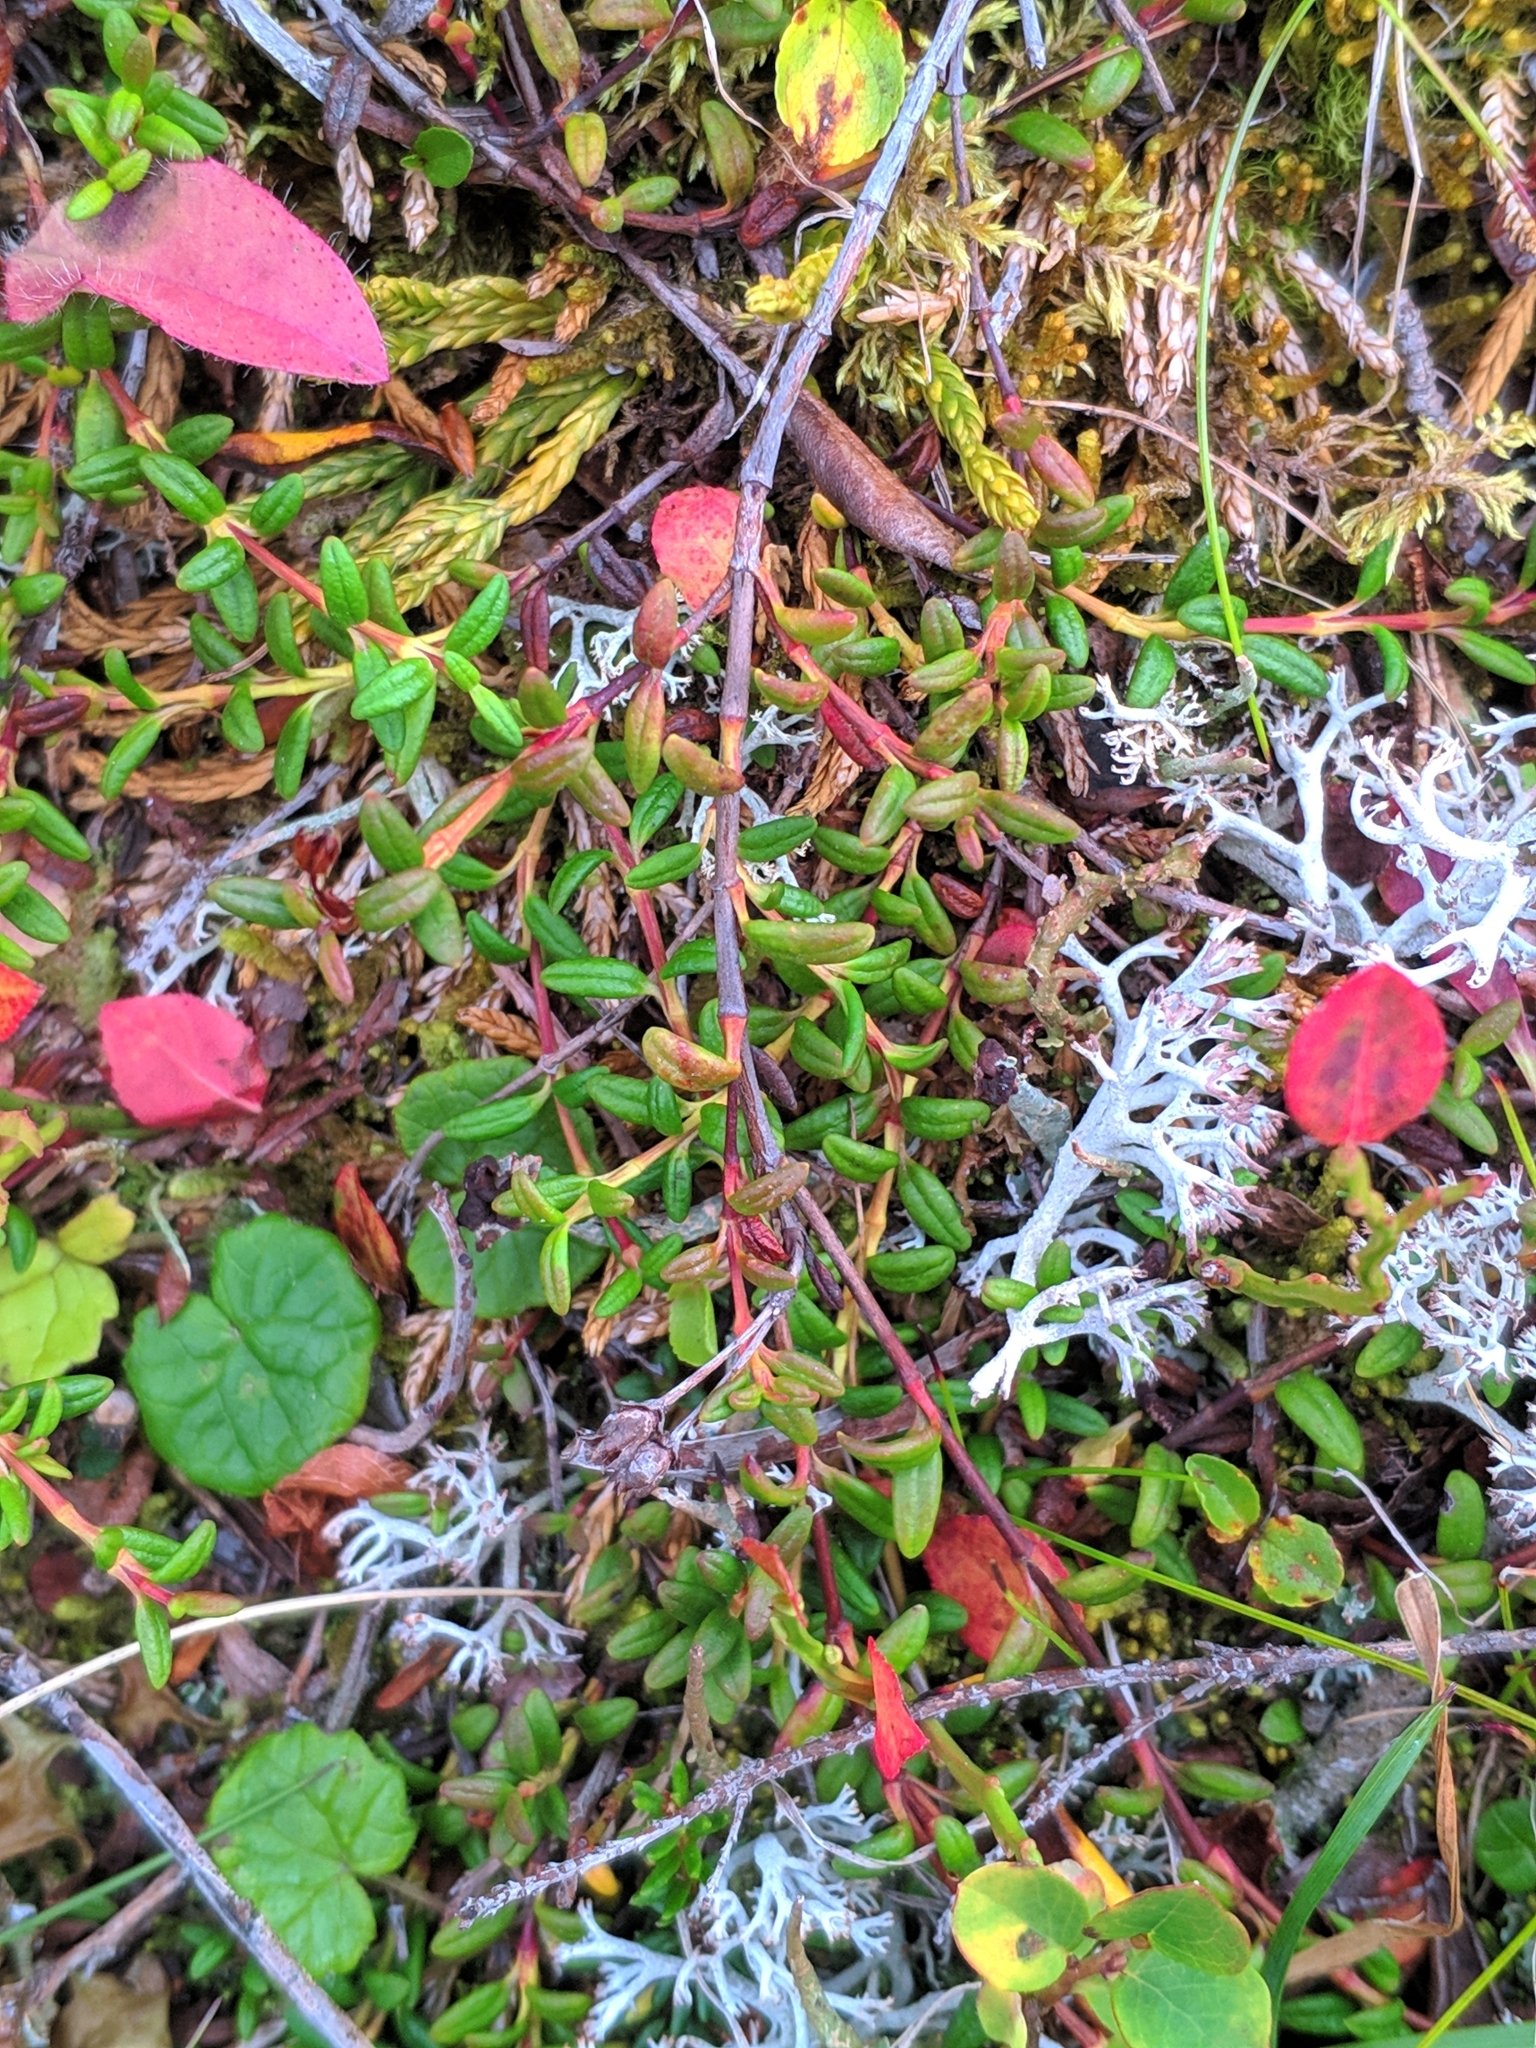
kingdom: Plantae
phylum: Tracheophyta
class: Magnoliopsida
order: Ericales
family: Ericaceae
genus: Kalmia
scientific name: Kalmia procumbens
